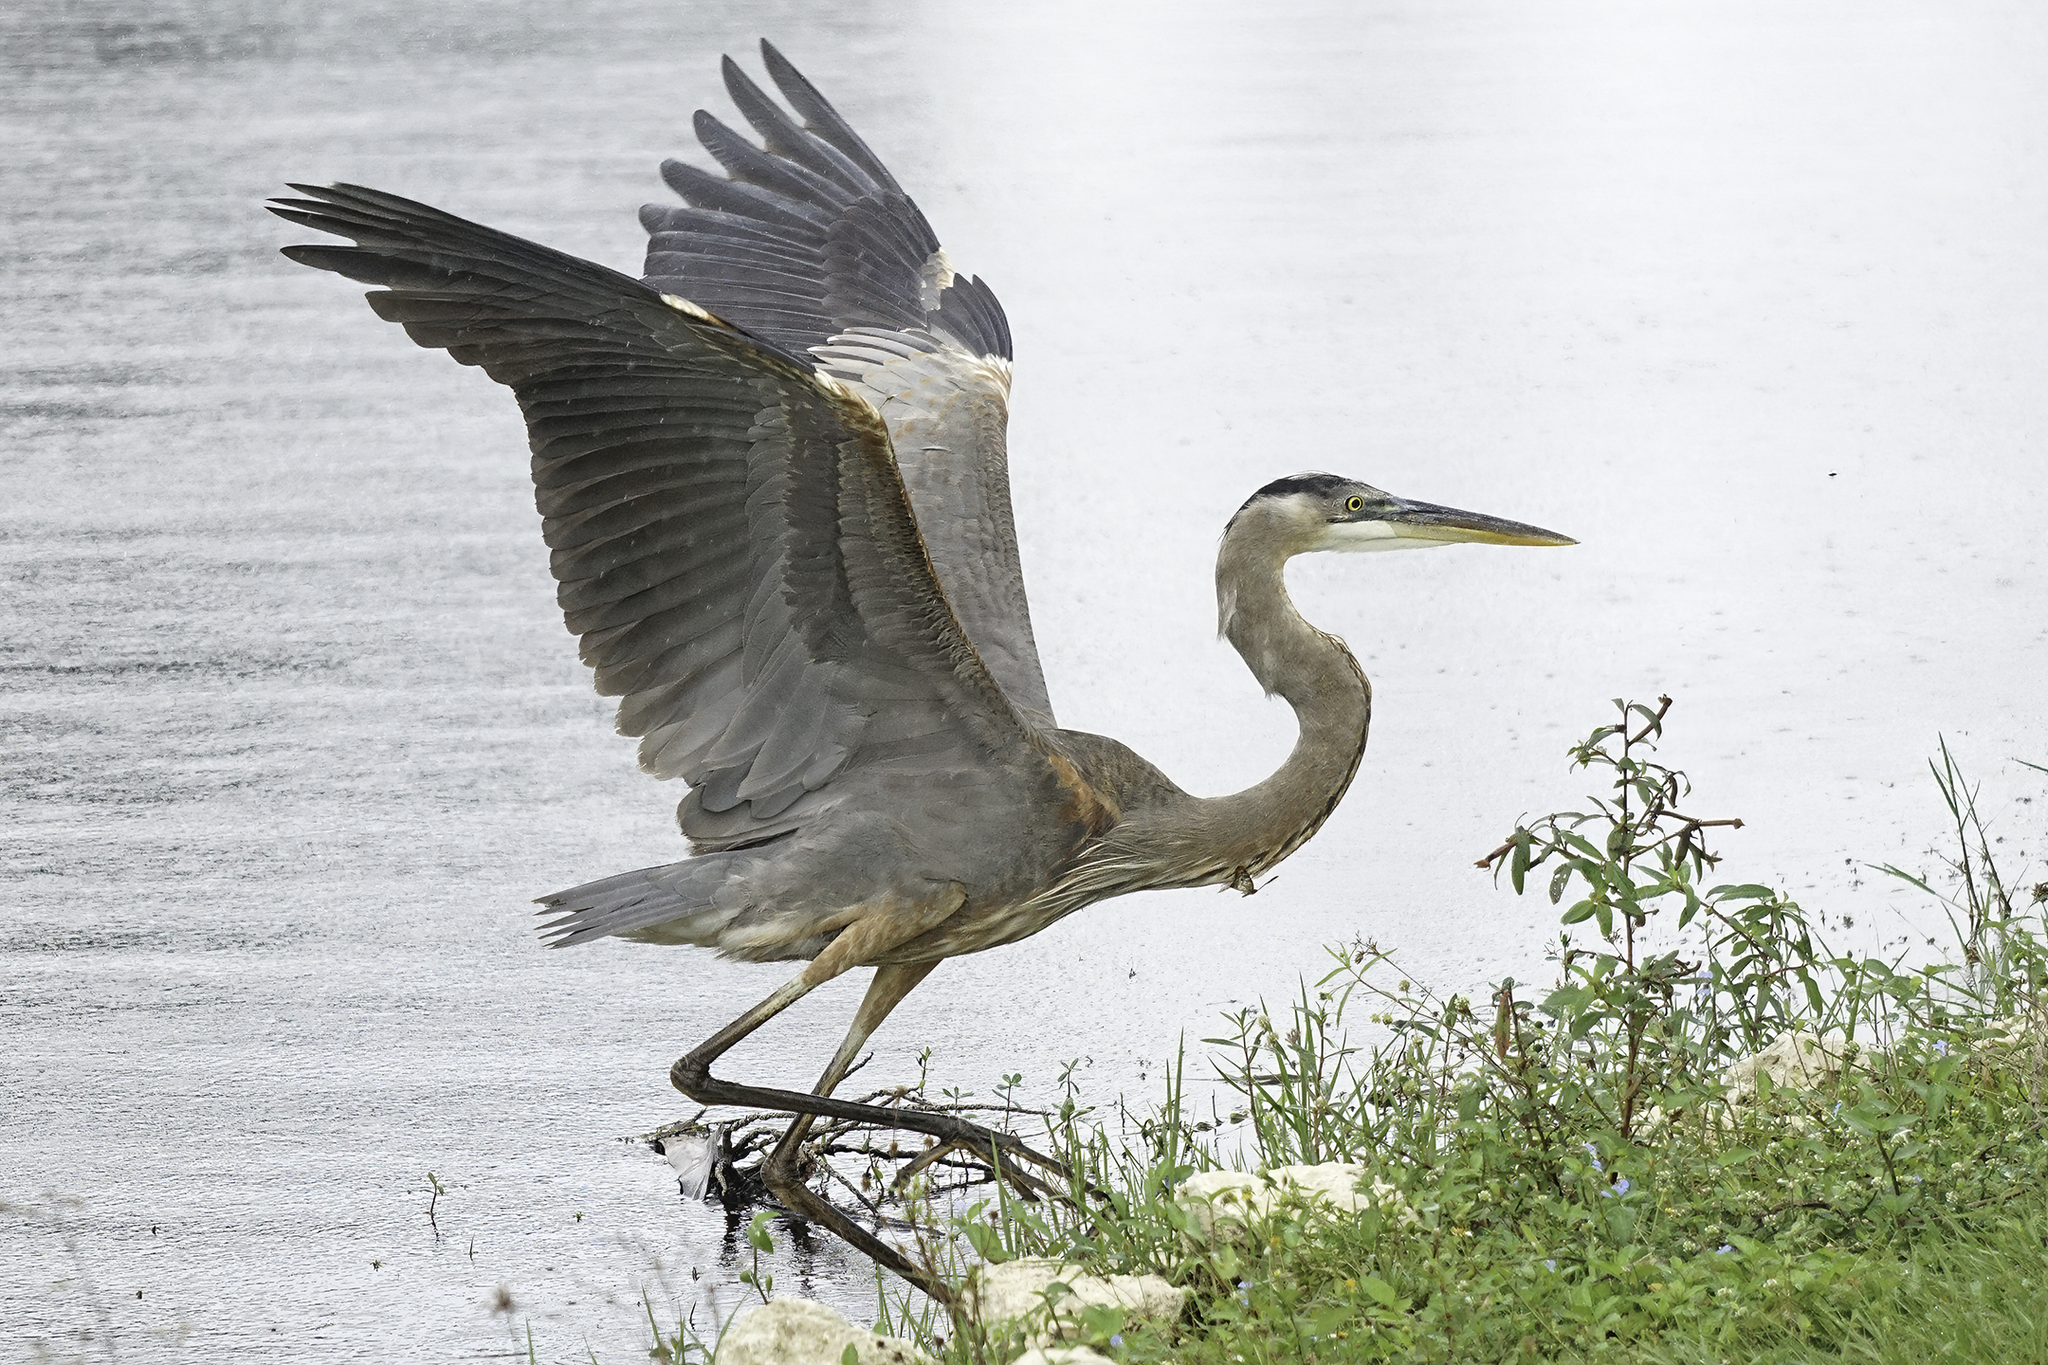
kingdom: Animalia
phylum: Chordata
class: Aves
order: Pelecaniformes
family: Ardeidae
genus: Ardea
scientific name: Ardea herodias
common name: Great blue heron
